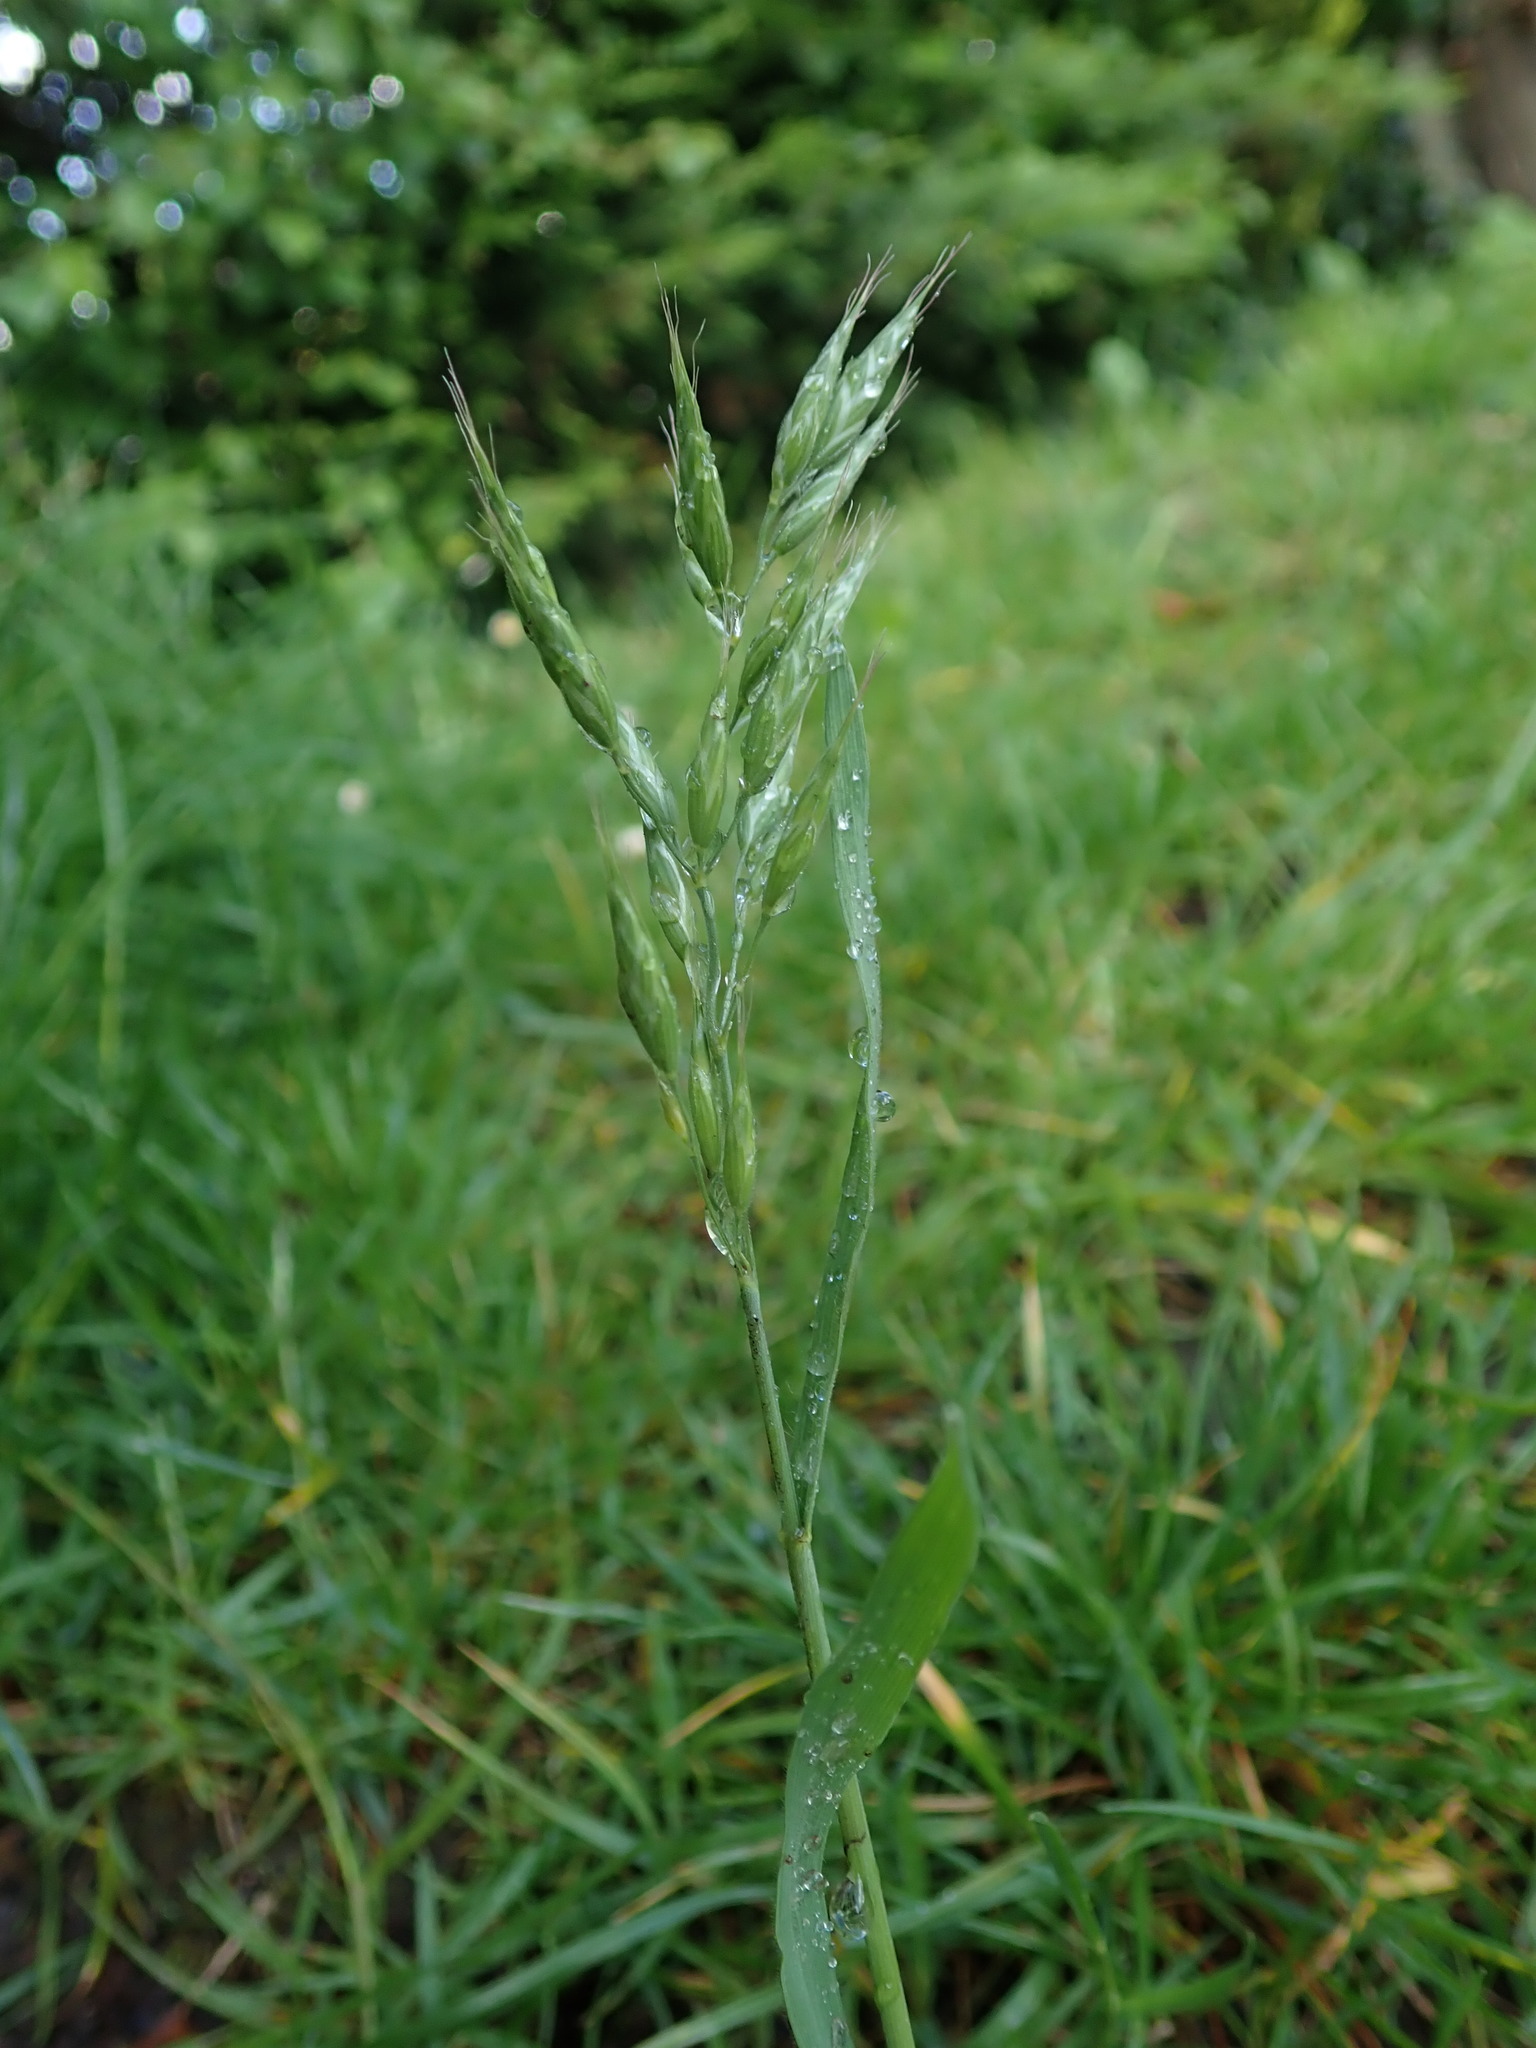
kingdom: Plantae
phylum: Tracheophyta
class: Liliopsida
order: Poales
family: Poaceae
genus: Bromus
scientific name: Bromus hordeaceus
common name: Soft brome
